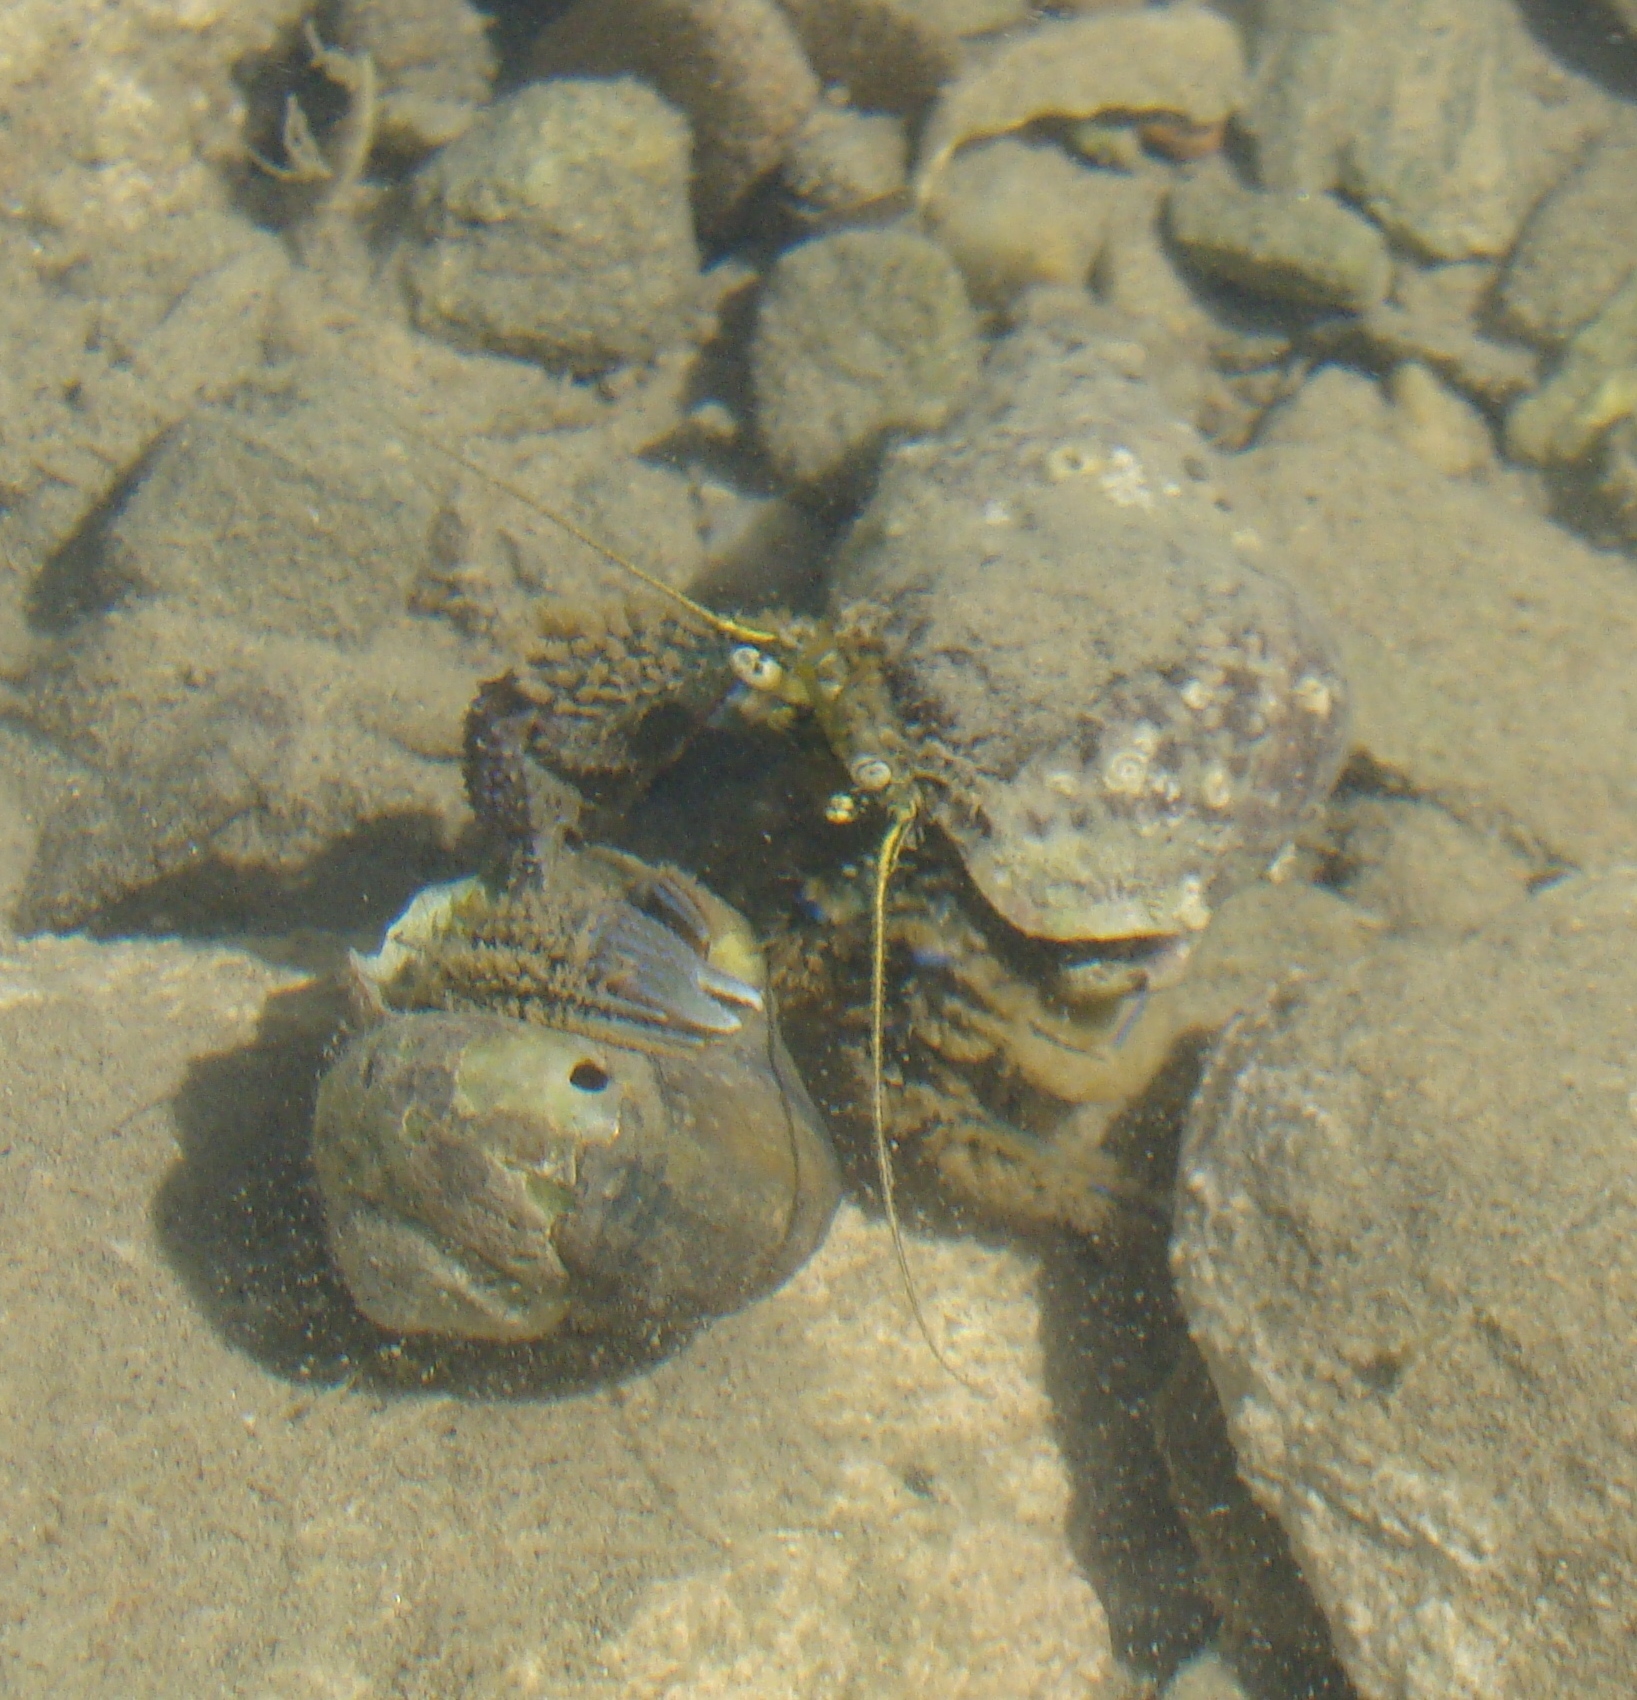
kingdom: Animalia
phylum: Arthropoda
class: Malacostraca
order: Decapoda
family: Paguridae
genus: Pagurus
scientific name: Pagurus novizealandiae
